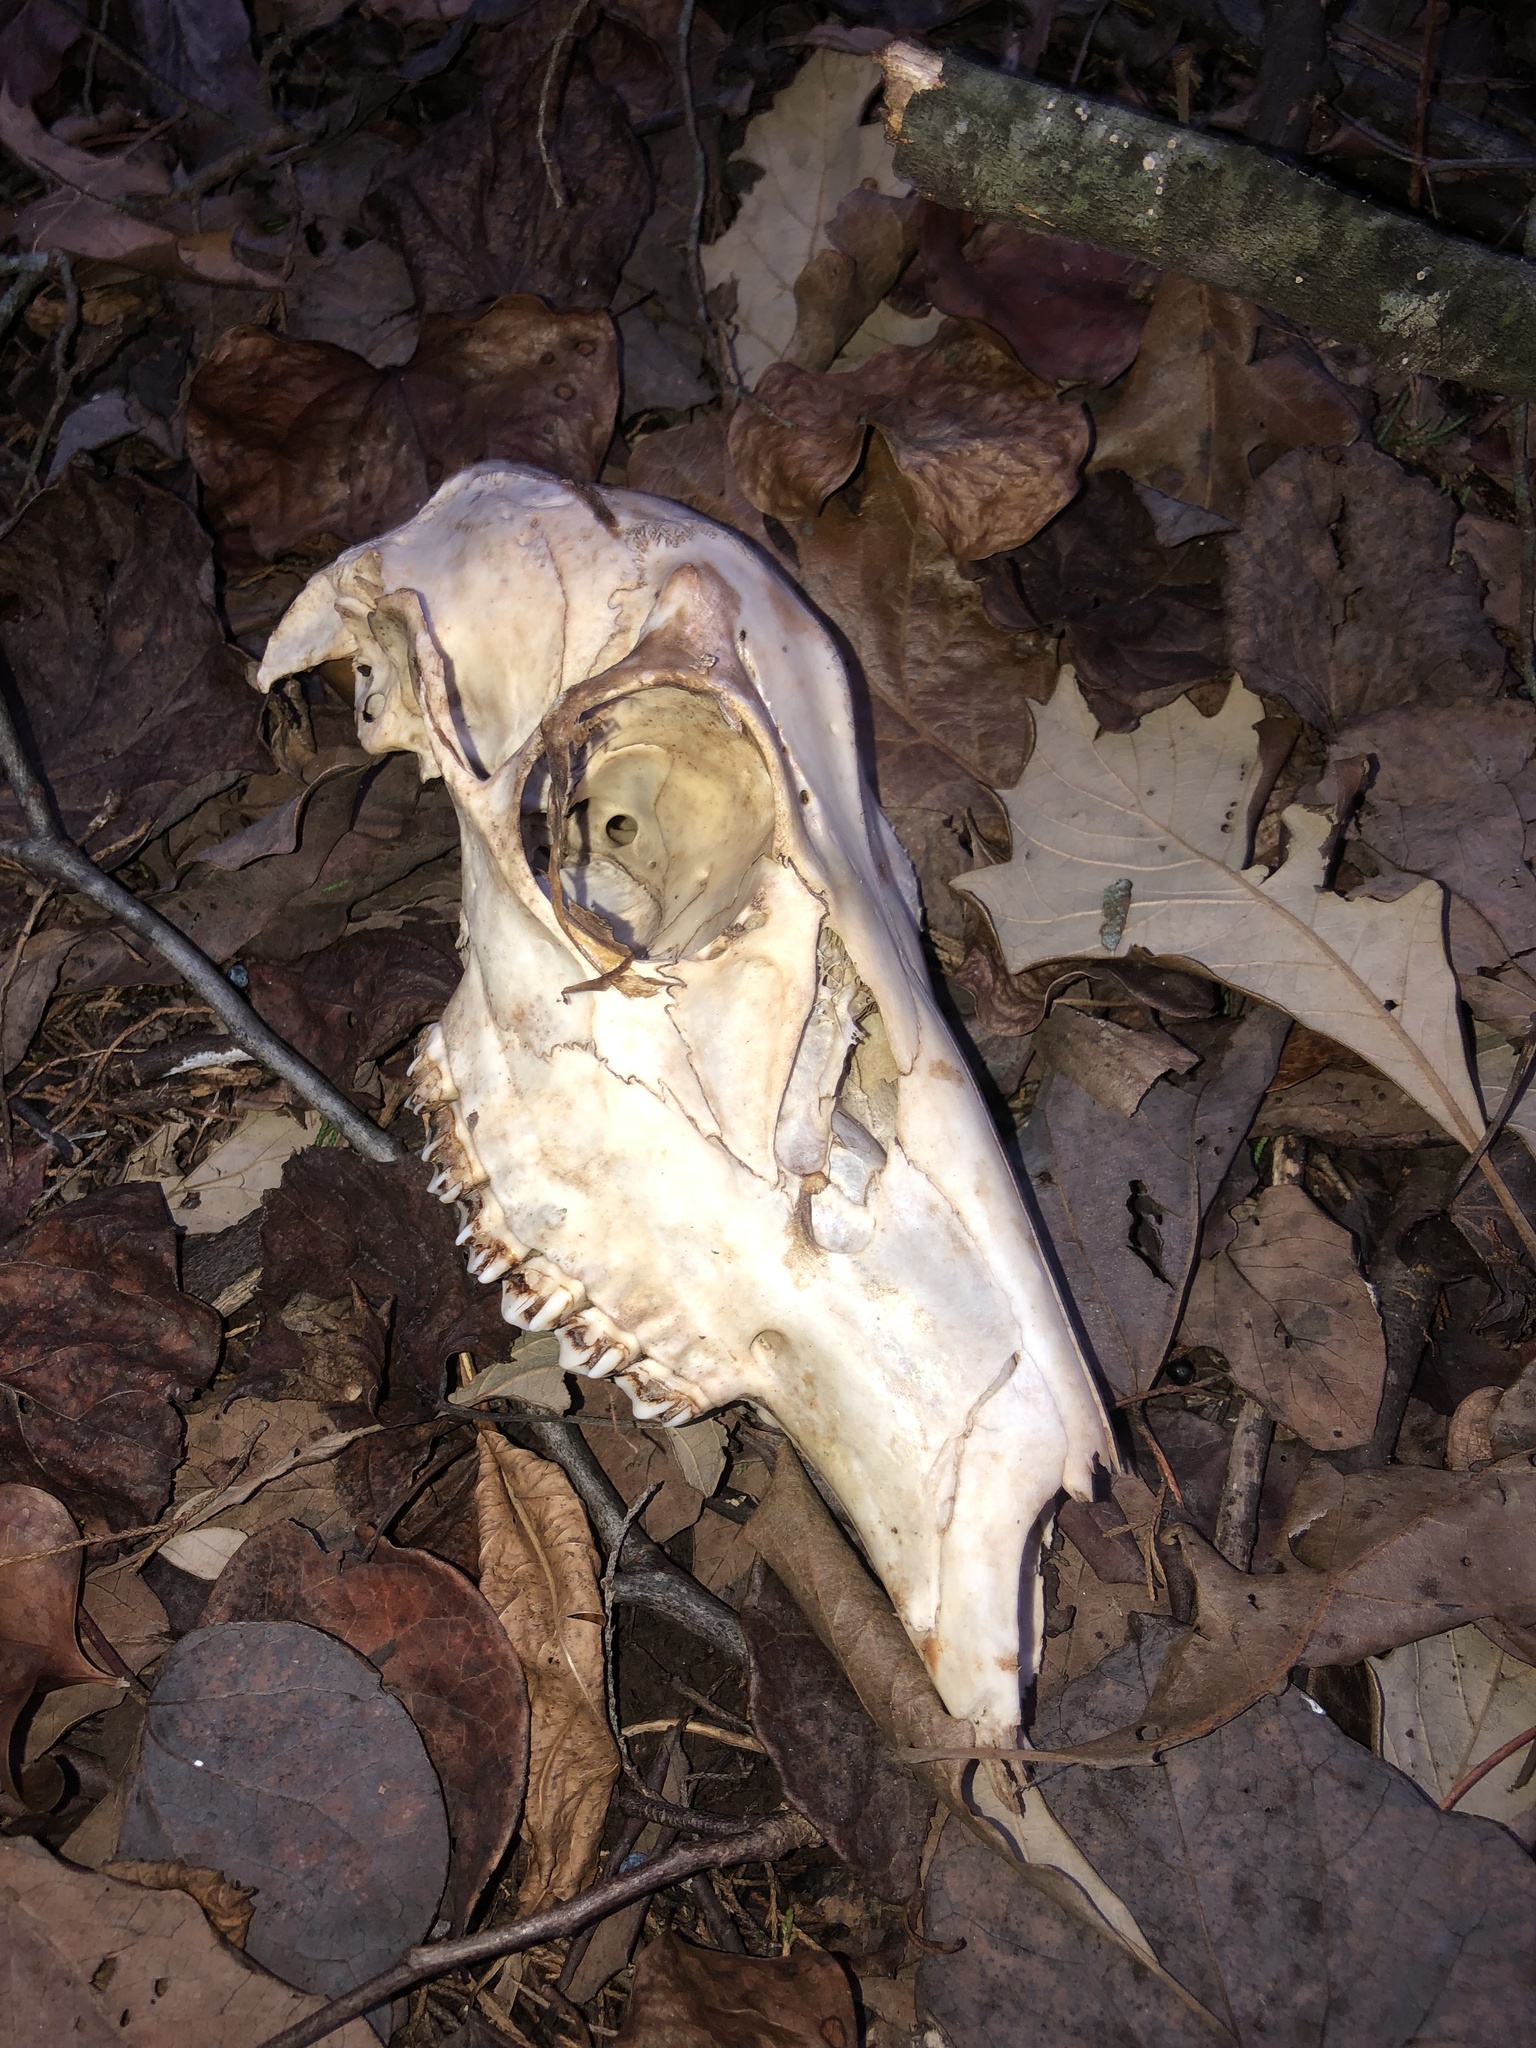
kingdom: Animalia
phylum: Chordata
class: Mammalia
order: Artiodactyla
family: Cervidae
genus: Odocoileus
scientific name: Odocoileus virginianus
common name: White-tailed deer
